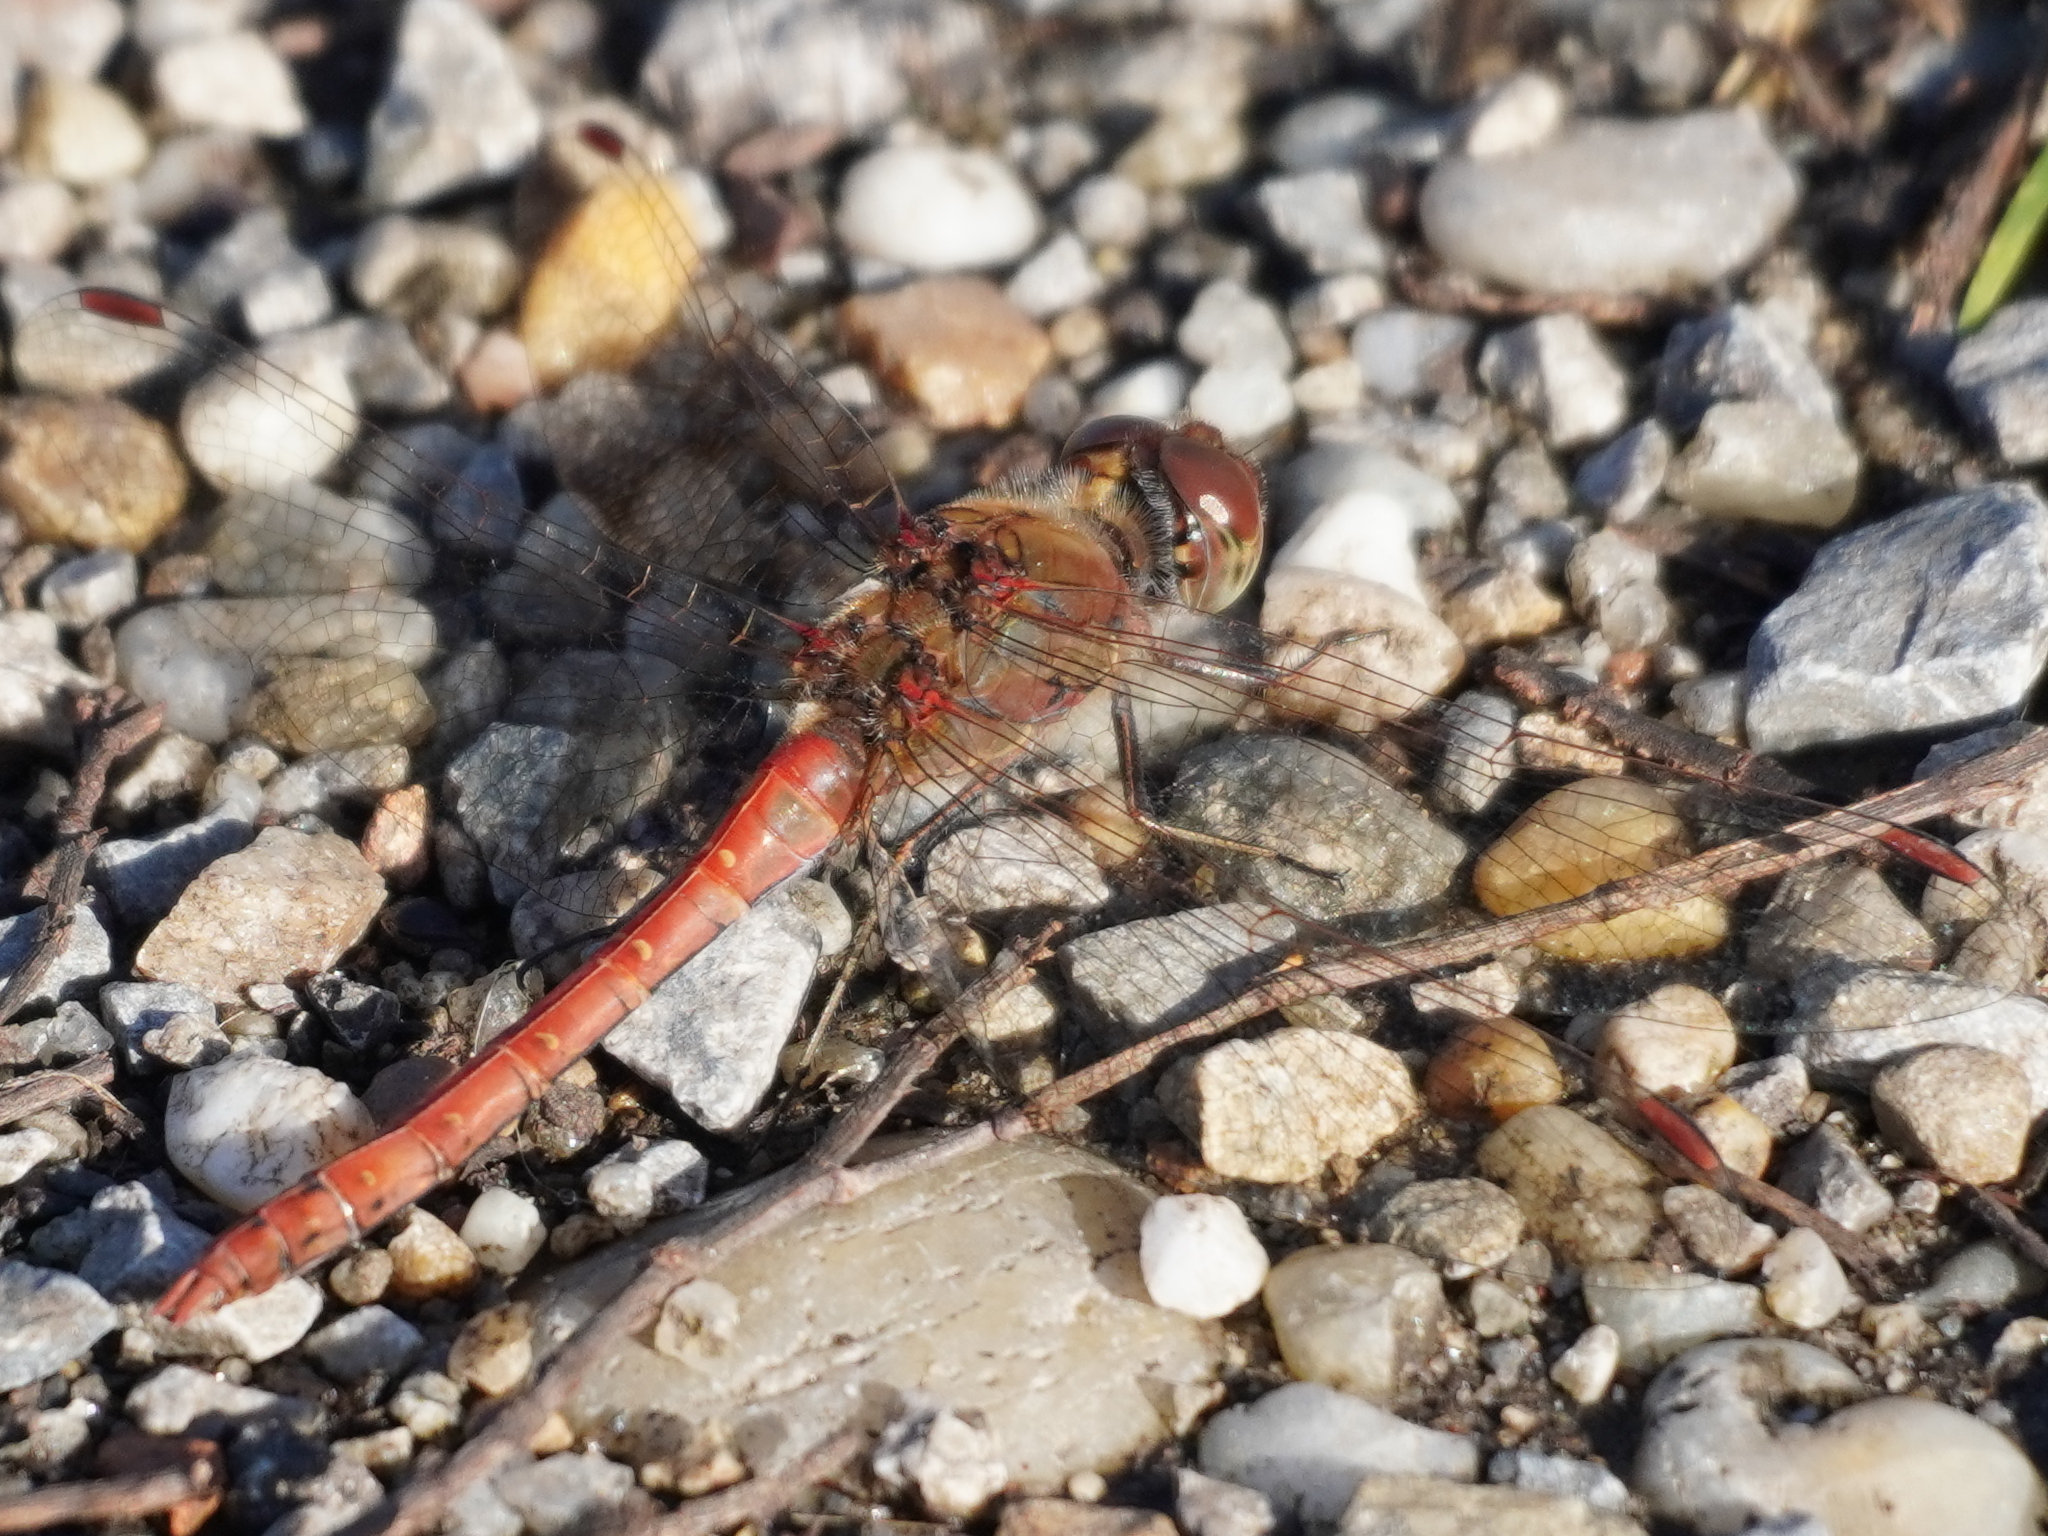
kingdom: Animalia
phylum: Arthropoda
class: Insecta
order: Odonata
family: Libellulidae
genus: Sympetrum
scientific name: Sympetrum striolatum
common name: Common darter
